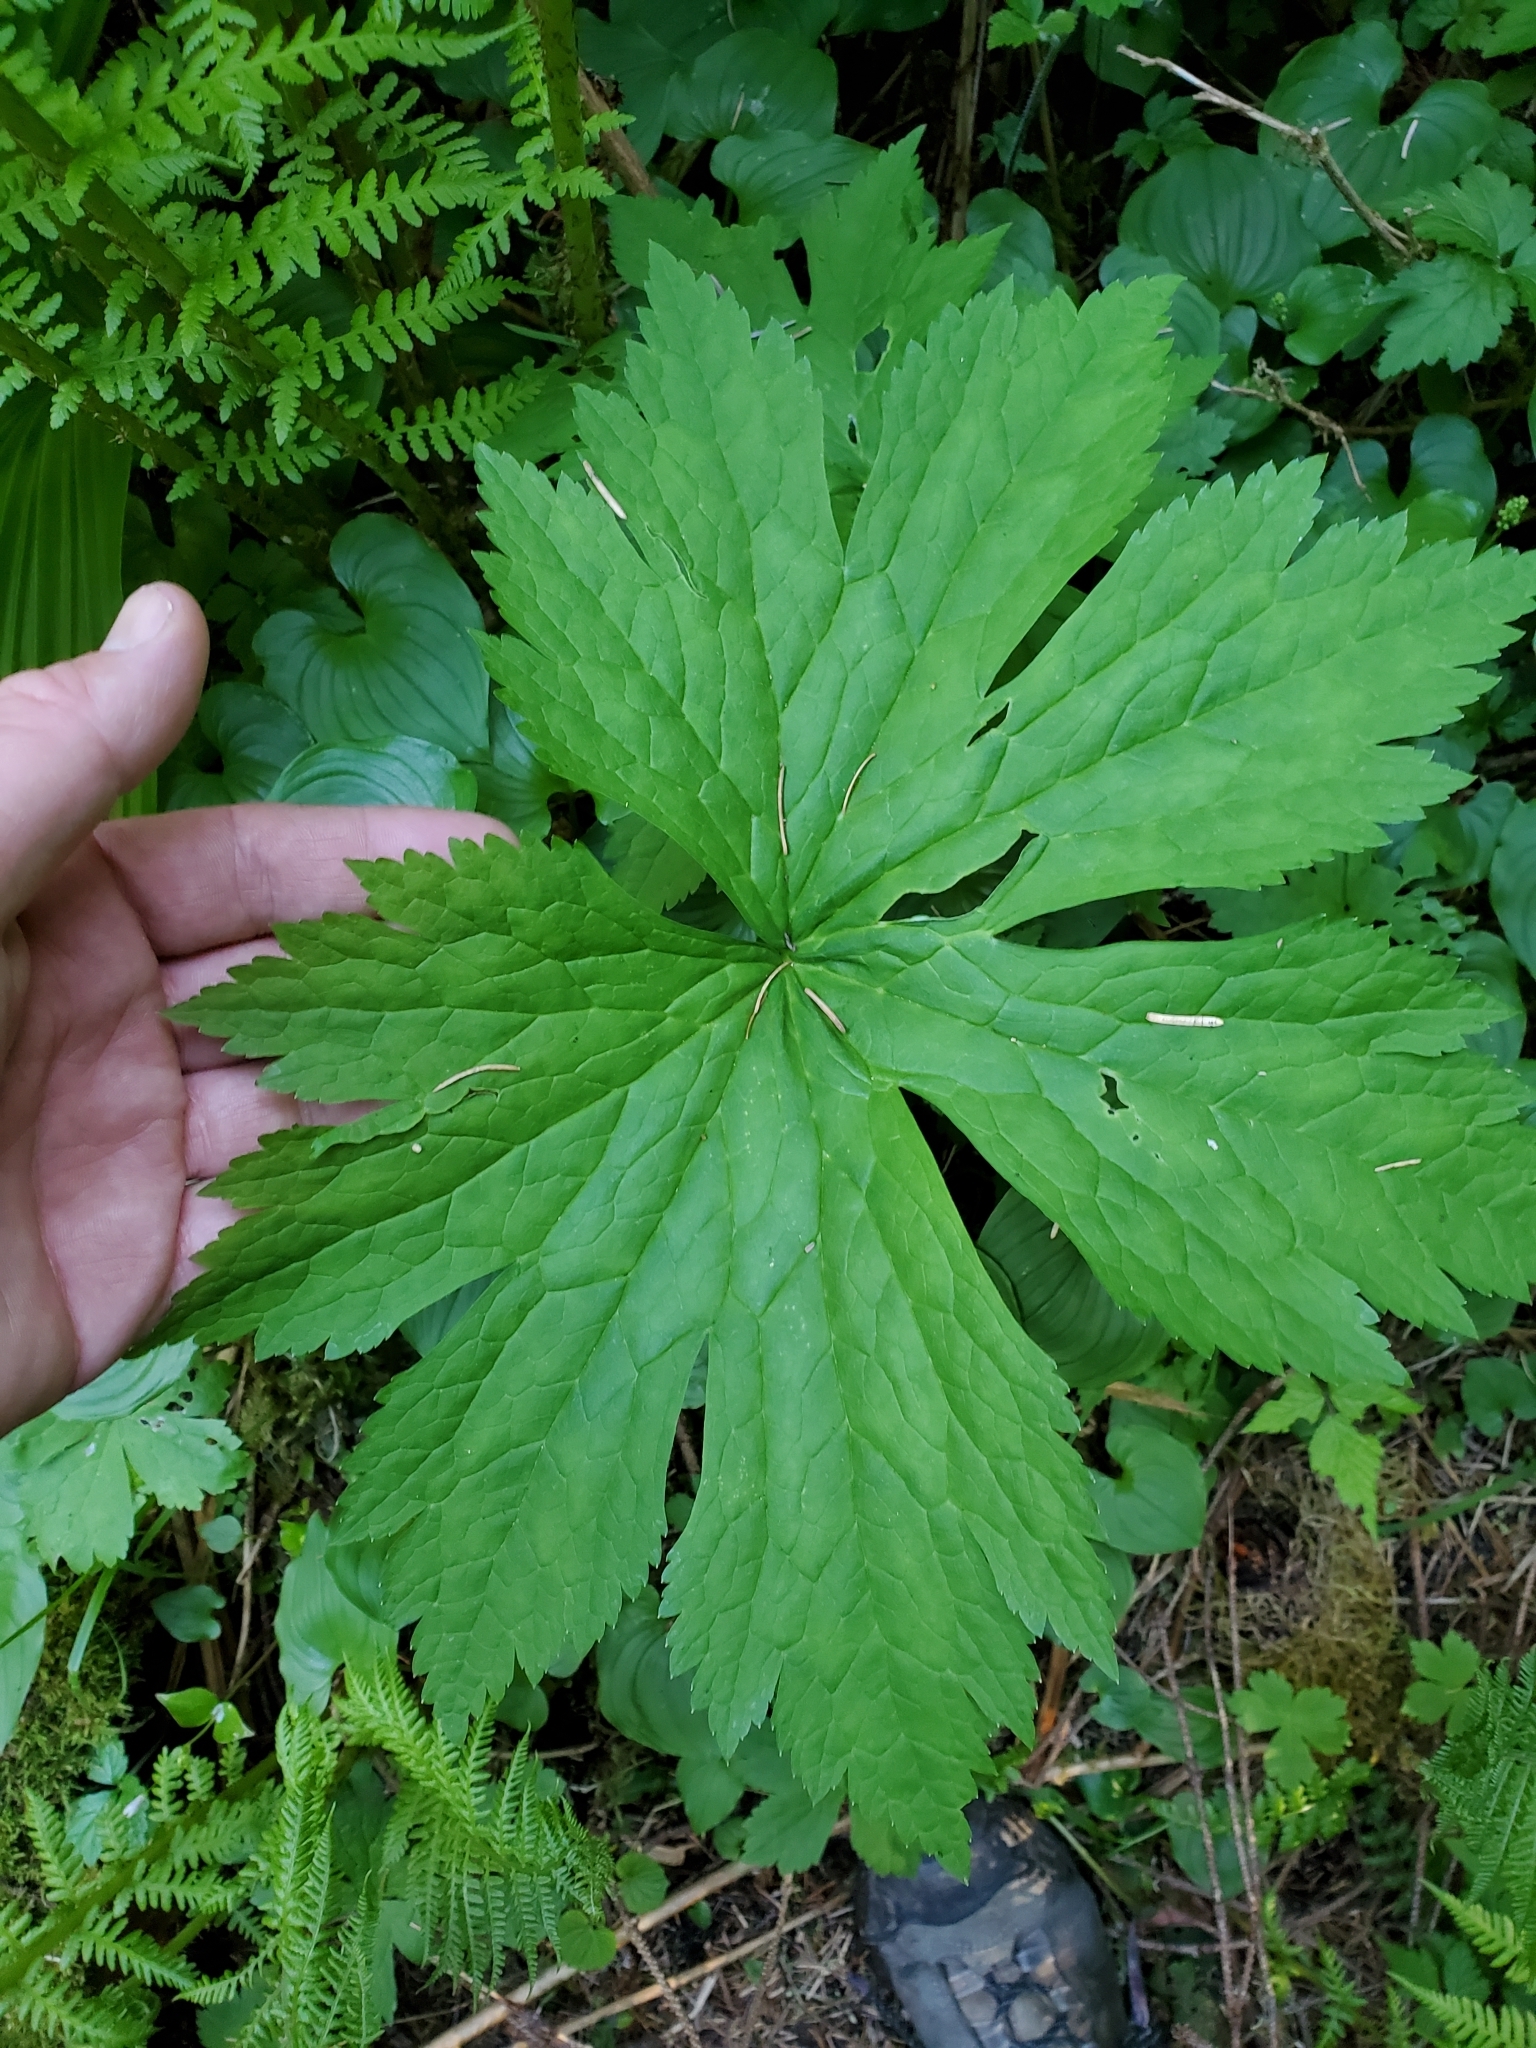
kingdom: Plantae
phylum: Tracheophyta
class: Magnoliopsida
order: Ranunculales
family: Ranunculaceae
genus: Trautvetteria
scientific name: Trautvetteria carolinensis
